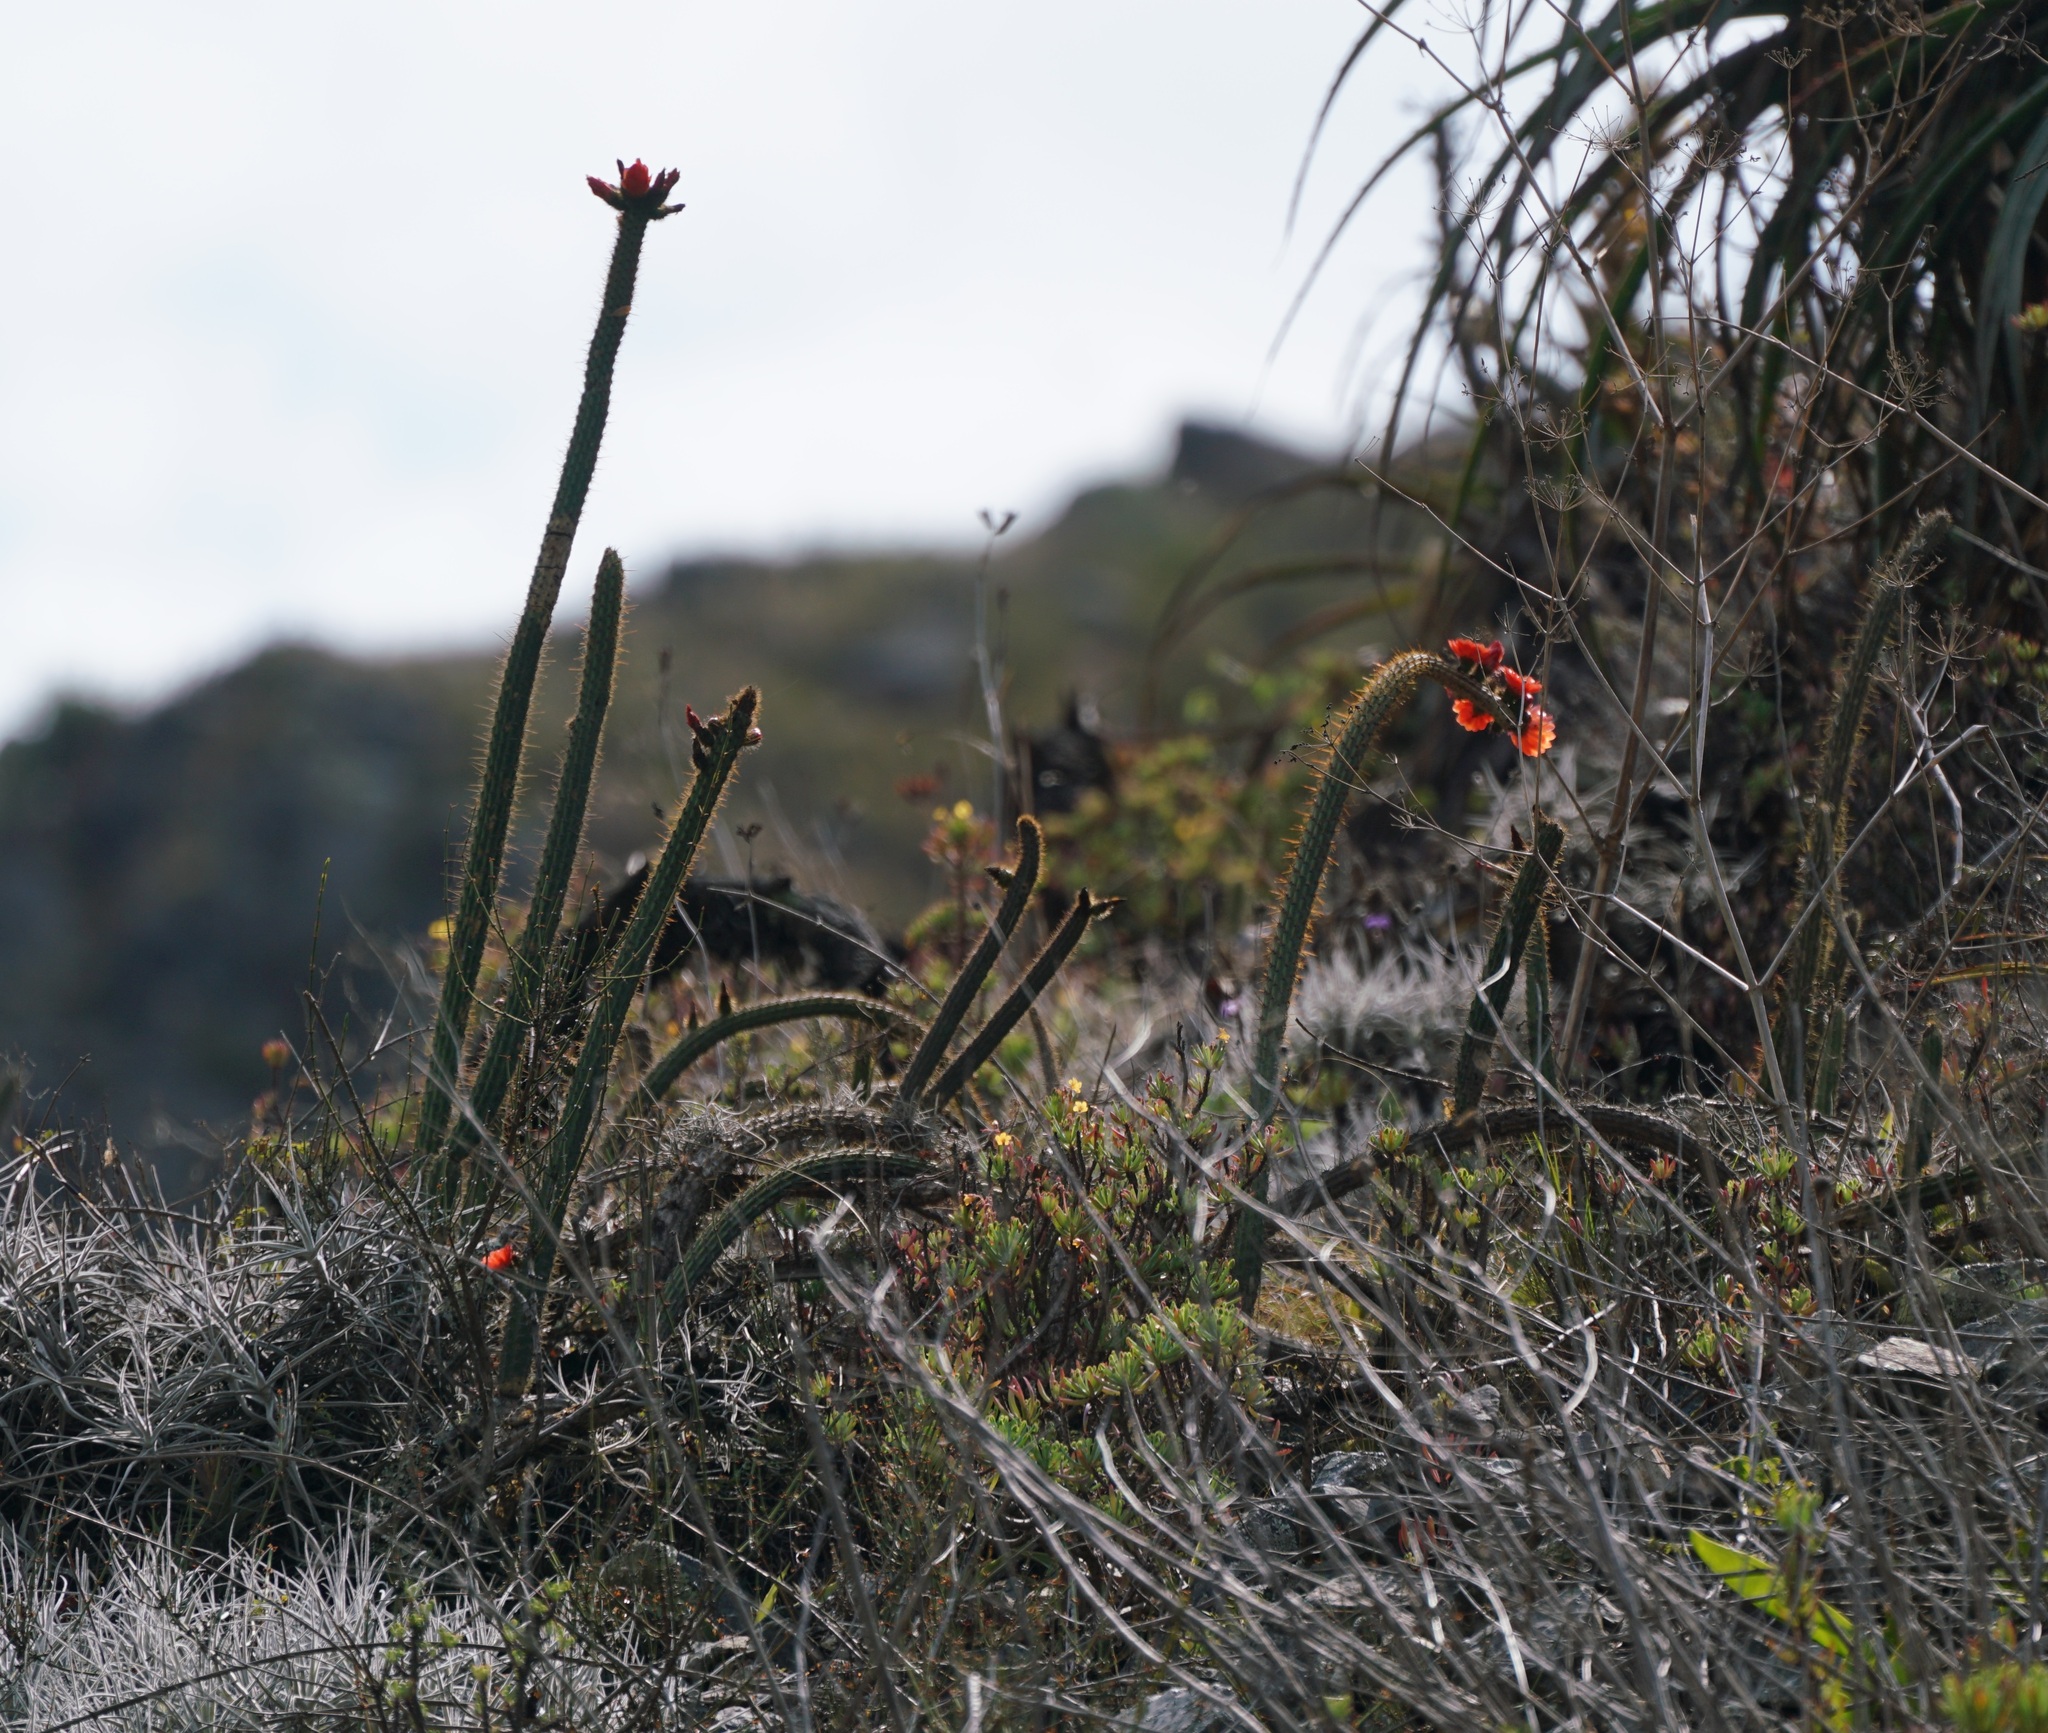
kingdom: Plantae
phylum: Tracheophyta
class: Magnoliopsida
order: Caryophyllales
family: Cactaceae
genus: Corryocactus
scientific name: Corryocactus erectus
